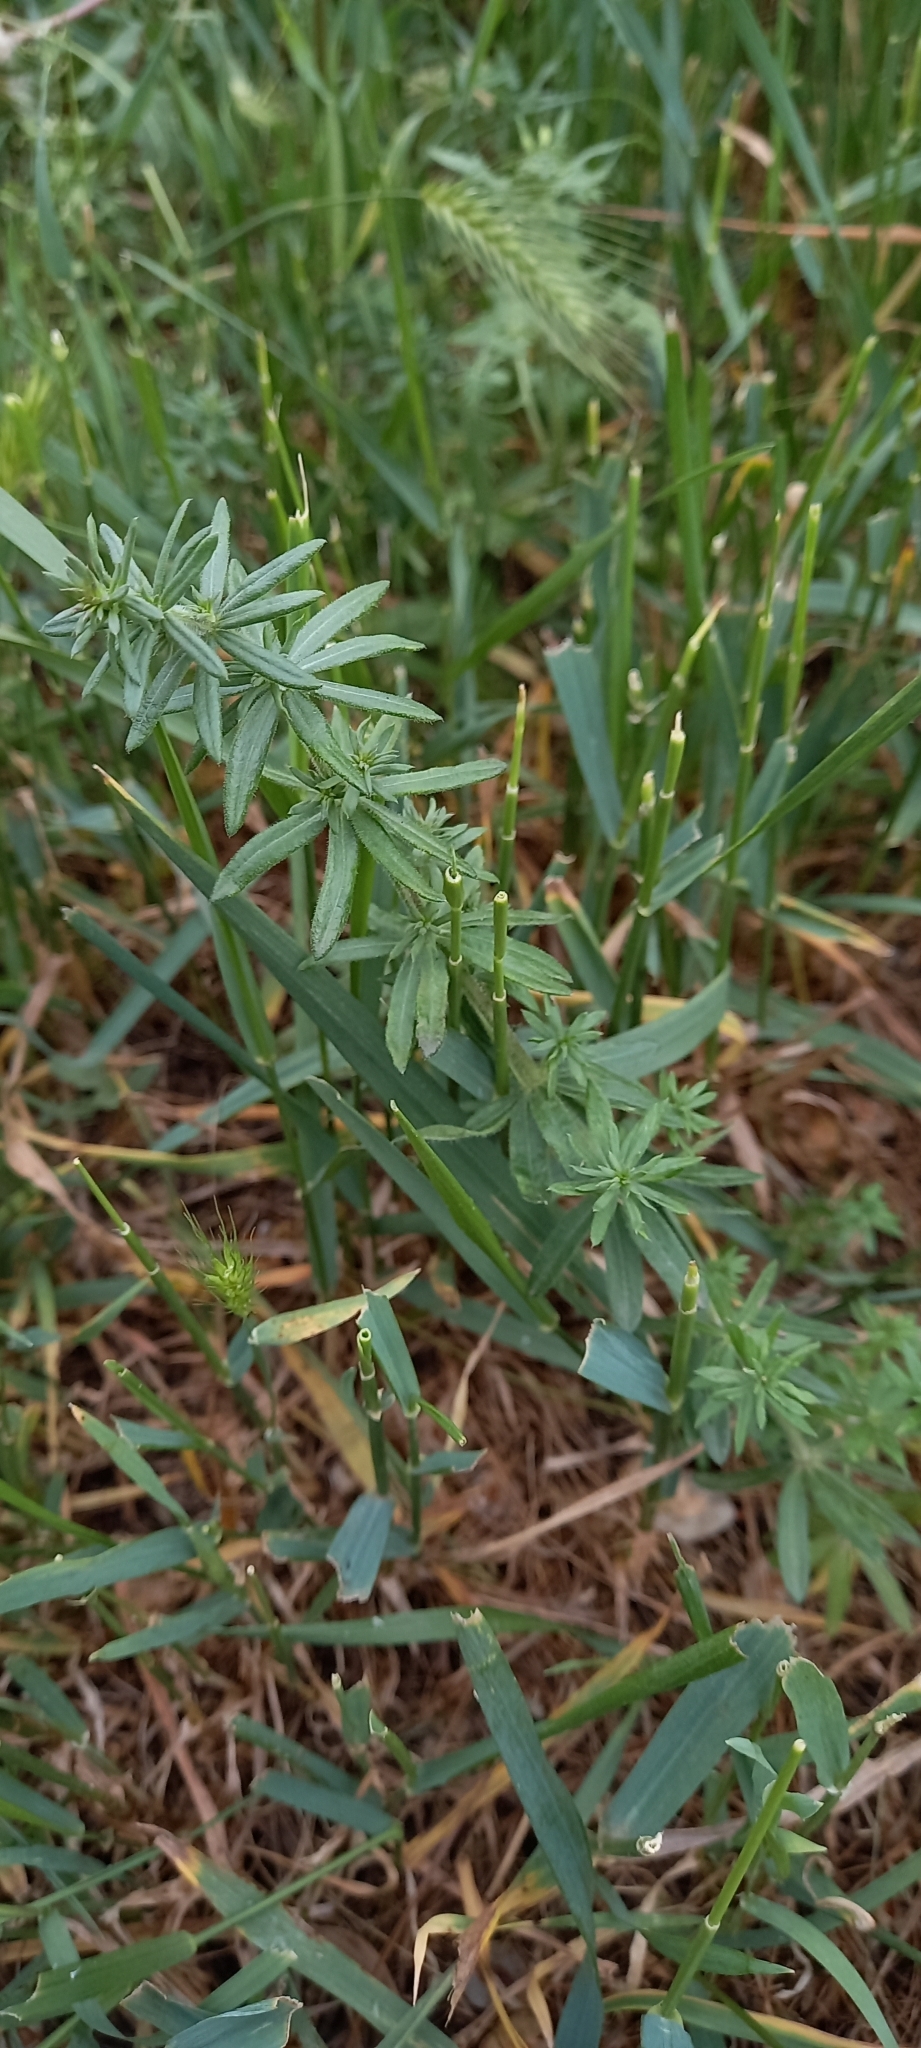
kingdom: Plantae
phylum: Tracheophyta
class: Magnoliopsida
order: Gentianales
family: Rubiaceae
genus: Galium
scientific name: Galium humifusum
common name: Spreading bedstraw
